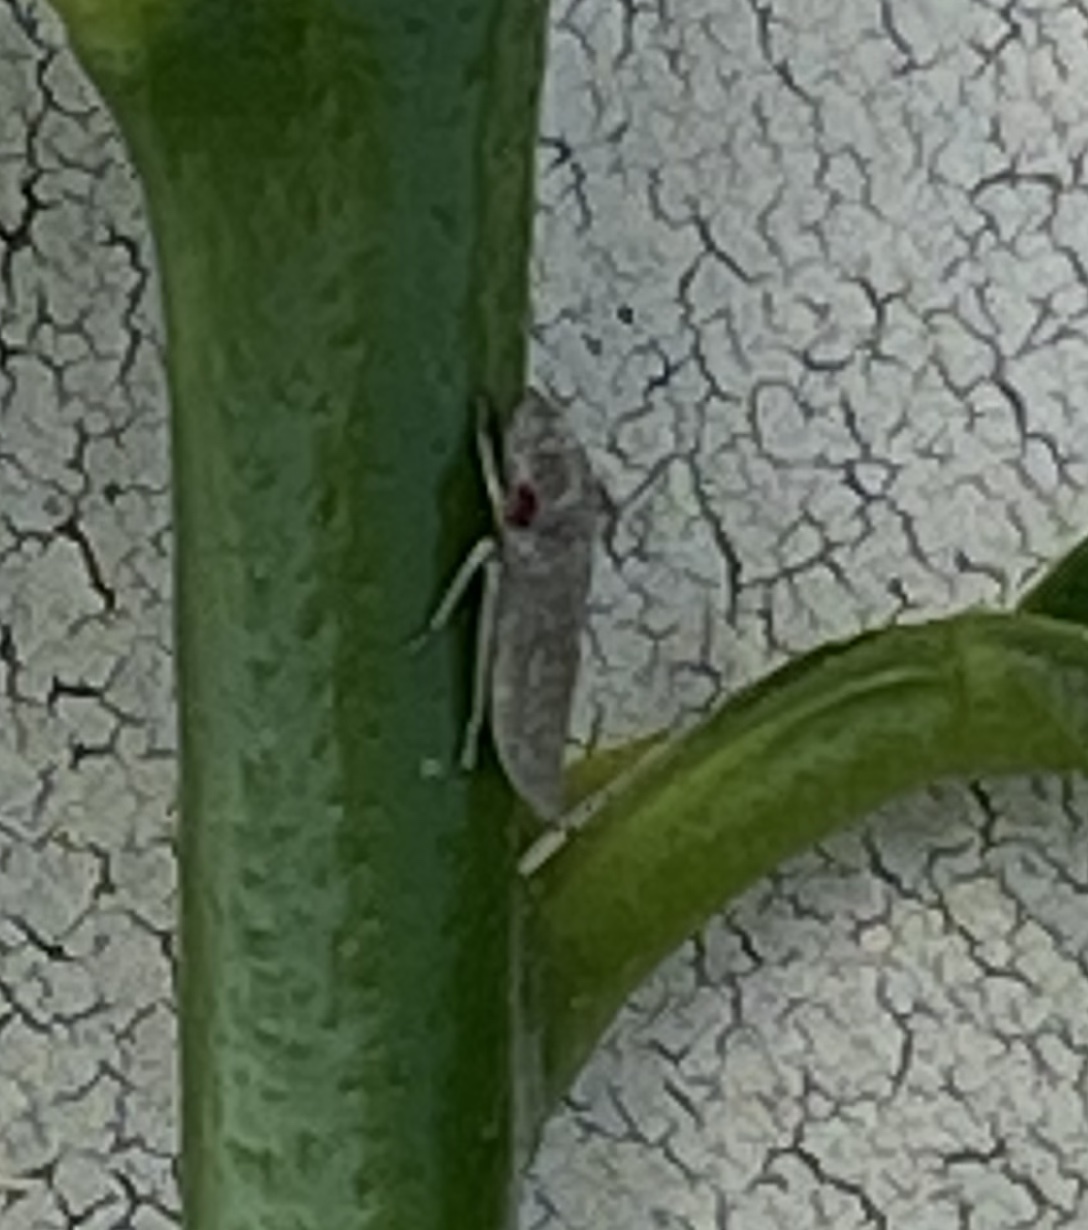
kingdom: Animalia
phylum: Arthropoda
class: Insecta
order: Hemiptera
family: Cicadellidae
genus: Homalodisca
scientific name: Homalodisca
